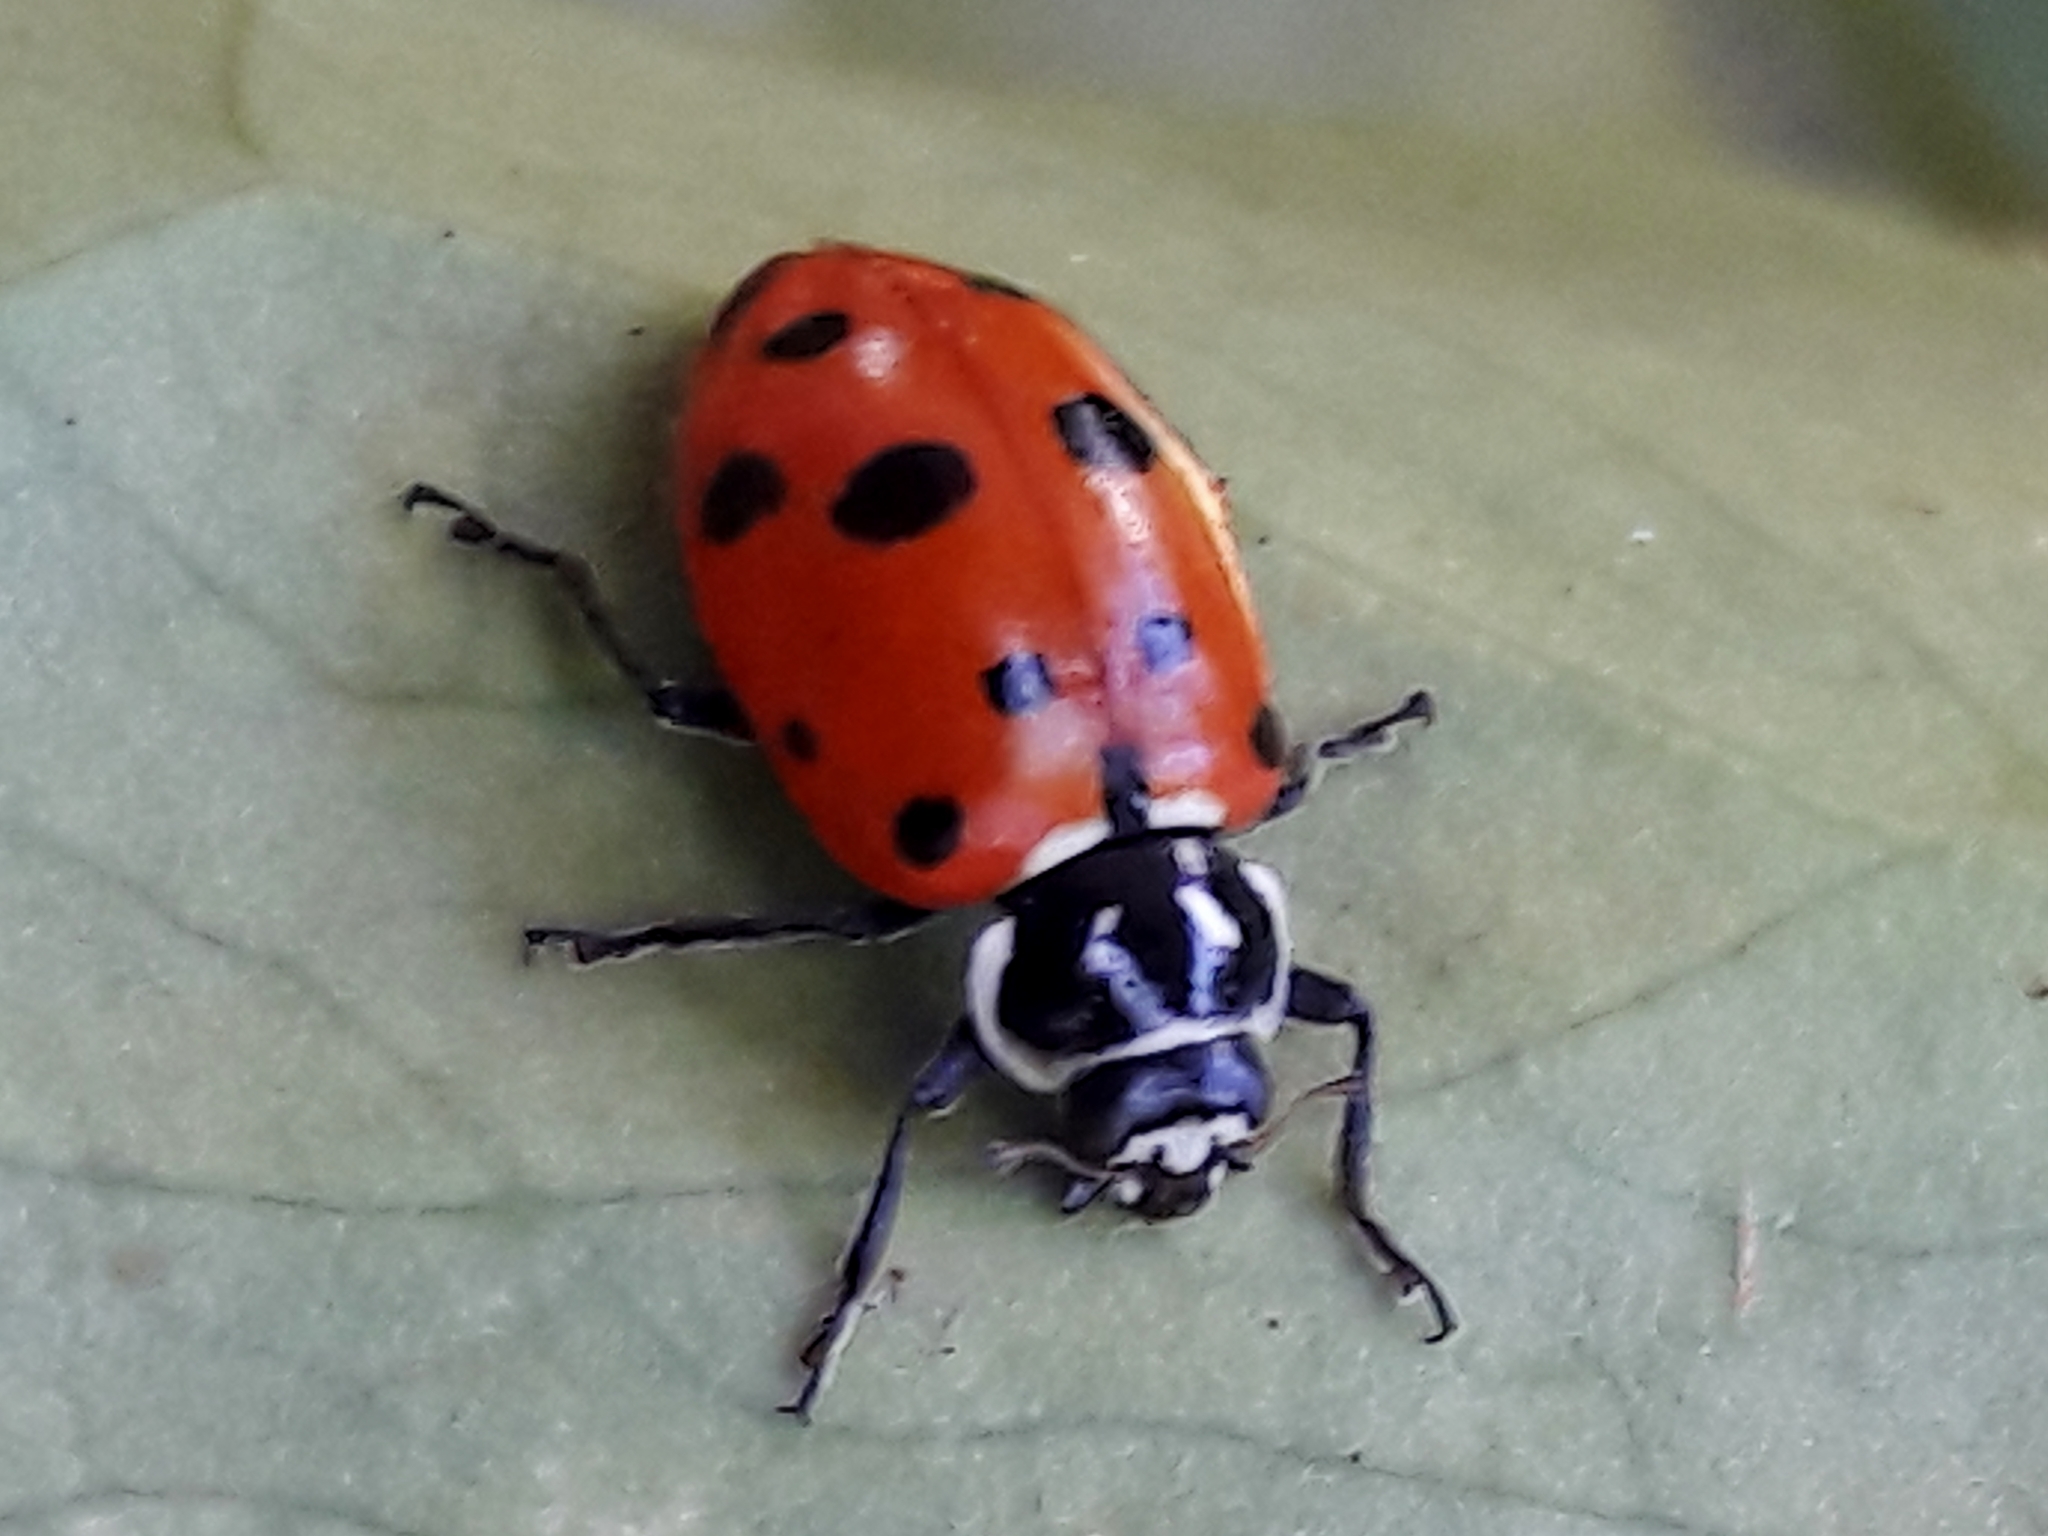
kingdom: Animalia
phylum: Arthropoda
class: Insecta
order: Coleoptera
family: Coccinellidae
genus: Hippodamia
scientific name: Hippodamia convergens
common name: Convergent lady beetle
